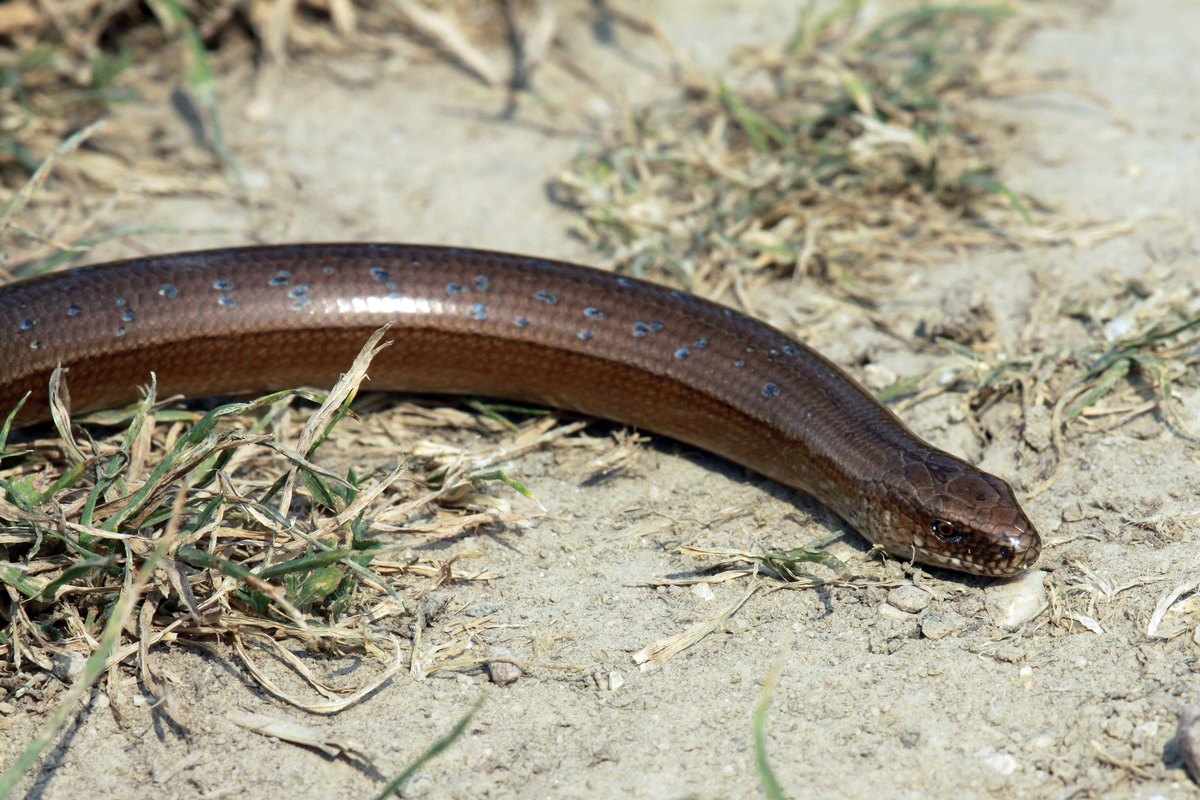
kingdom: Animalia
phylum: Chordata
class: Squamata
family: Anguidae
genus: Anguis
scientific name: Anguis colchica
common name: Slow worm
